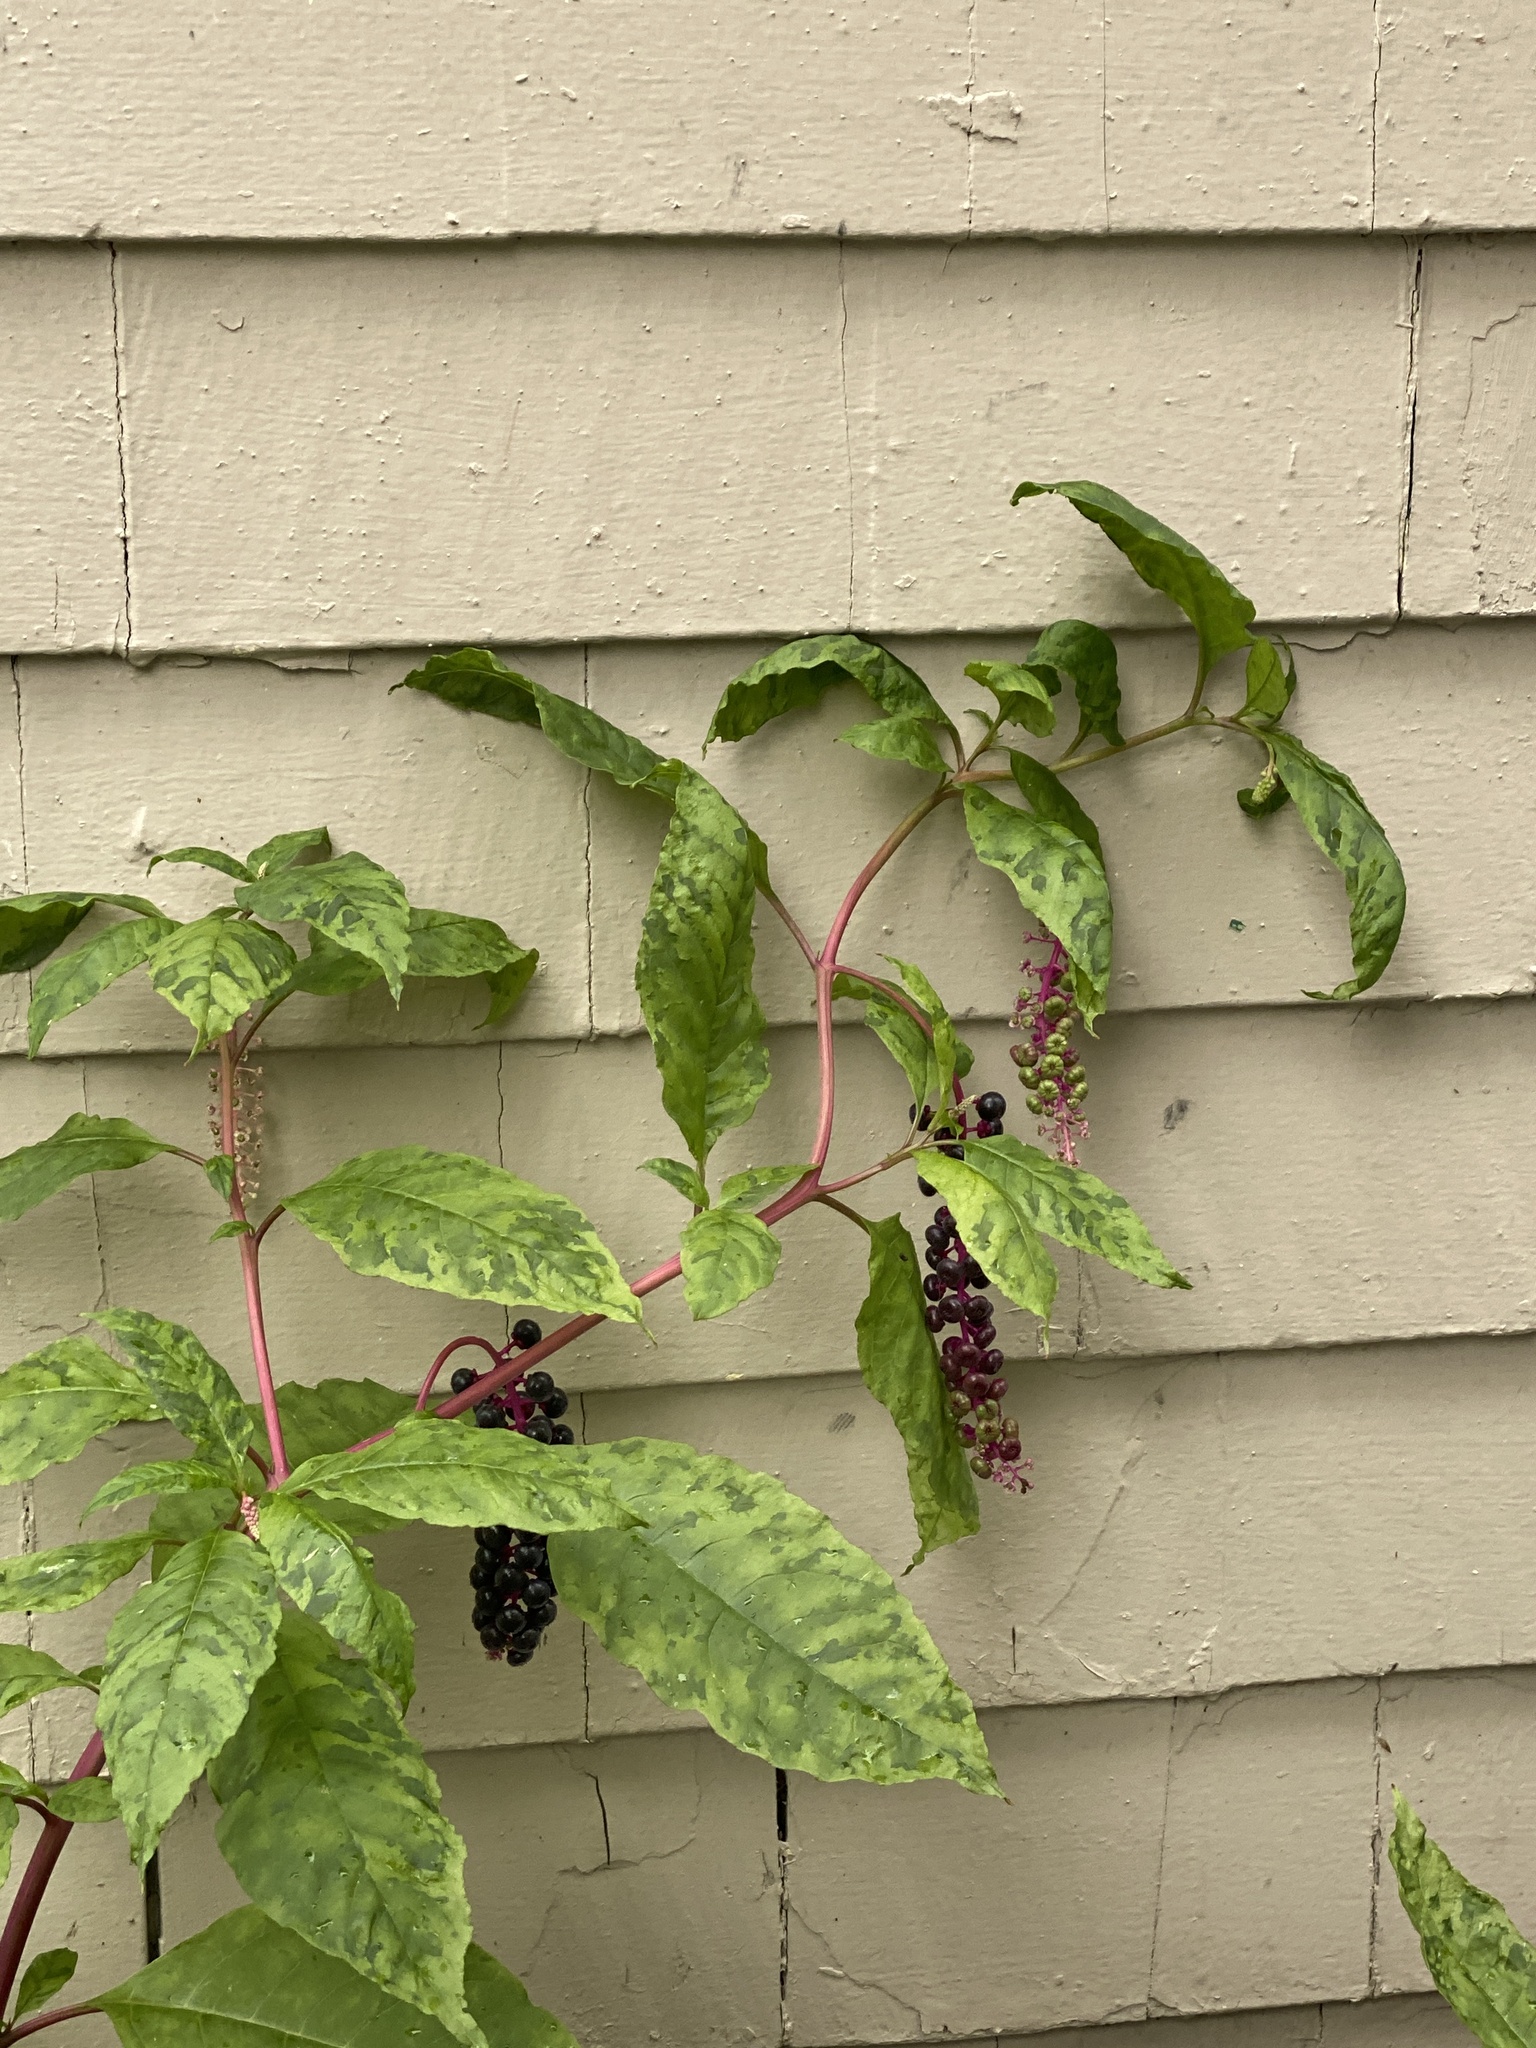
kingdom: Plantae
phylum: Tracheophyta
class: Magnoliopsida
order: Caryophyllales
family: Phytolaccaceae
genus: Phytolacca
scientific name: Phytolacca americana
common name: American pokeweed
